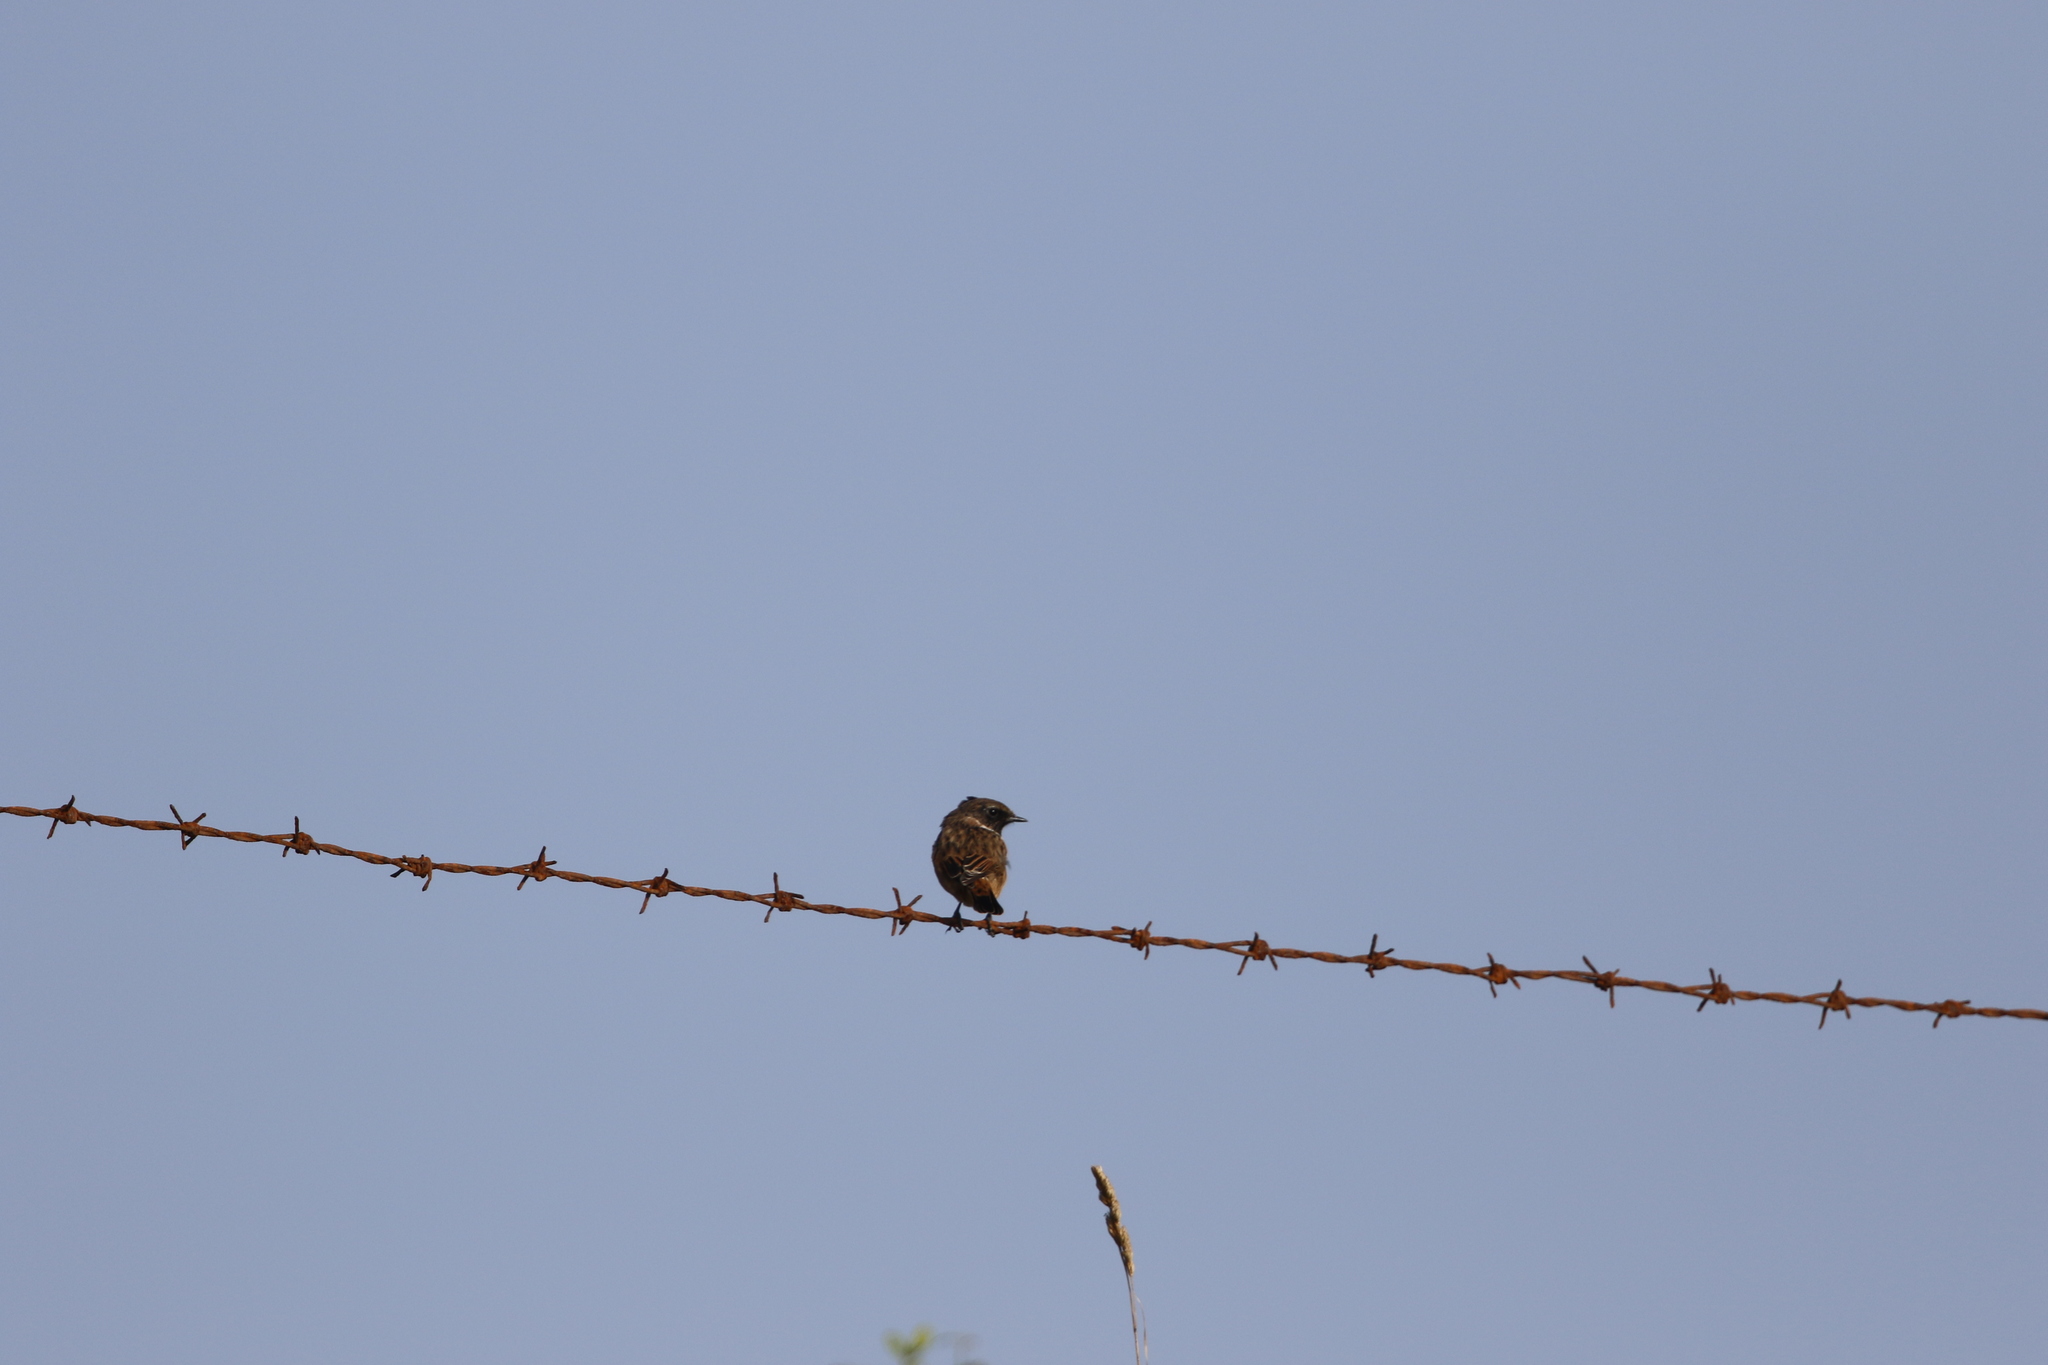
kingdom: Animalia
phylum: Chordata
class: Aves
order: Passeriformes
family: Muscicapidae
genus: Saxicola
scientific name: Saxicola rubicola
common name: European stonechat
